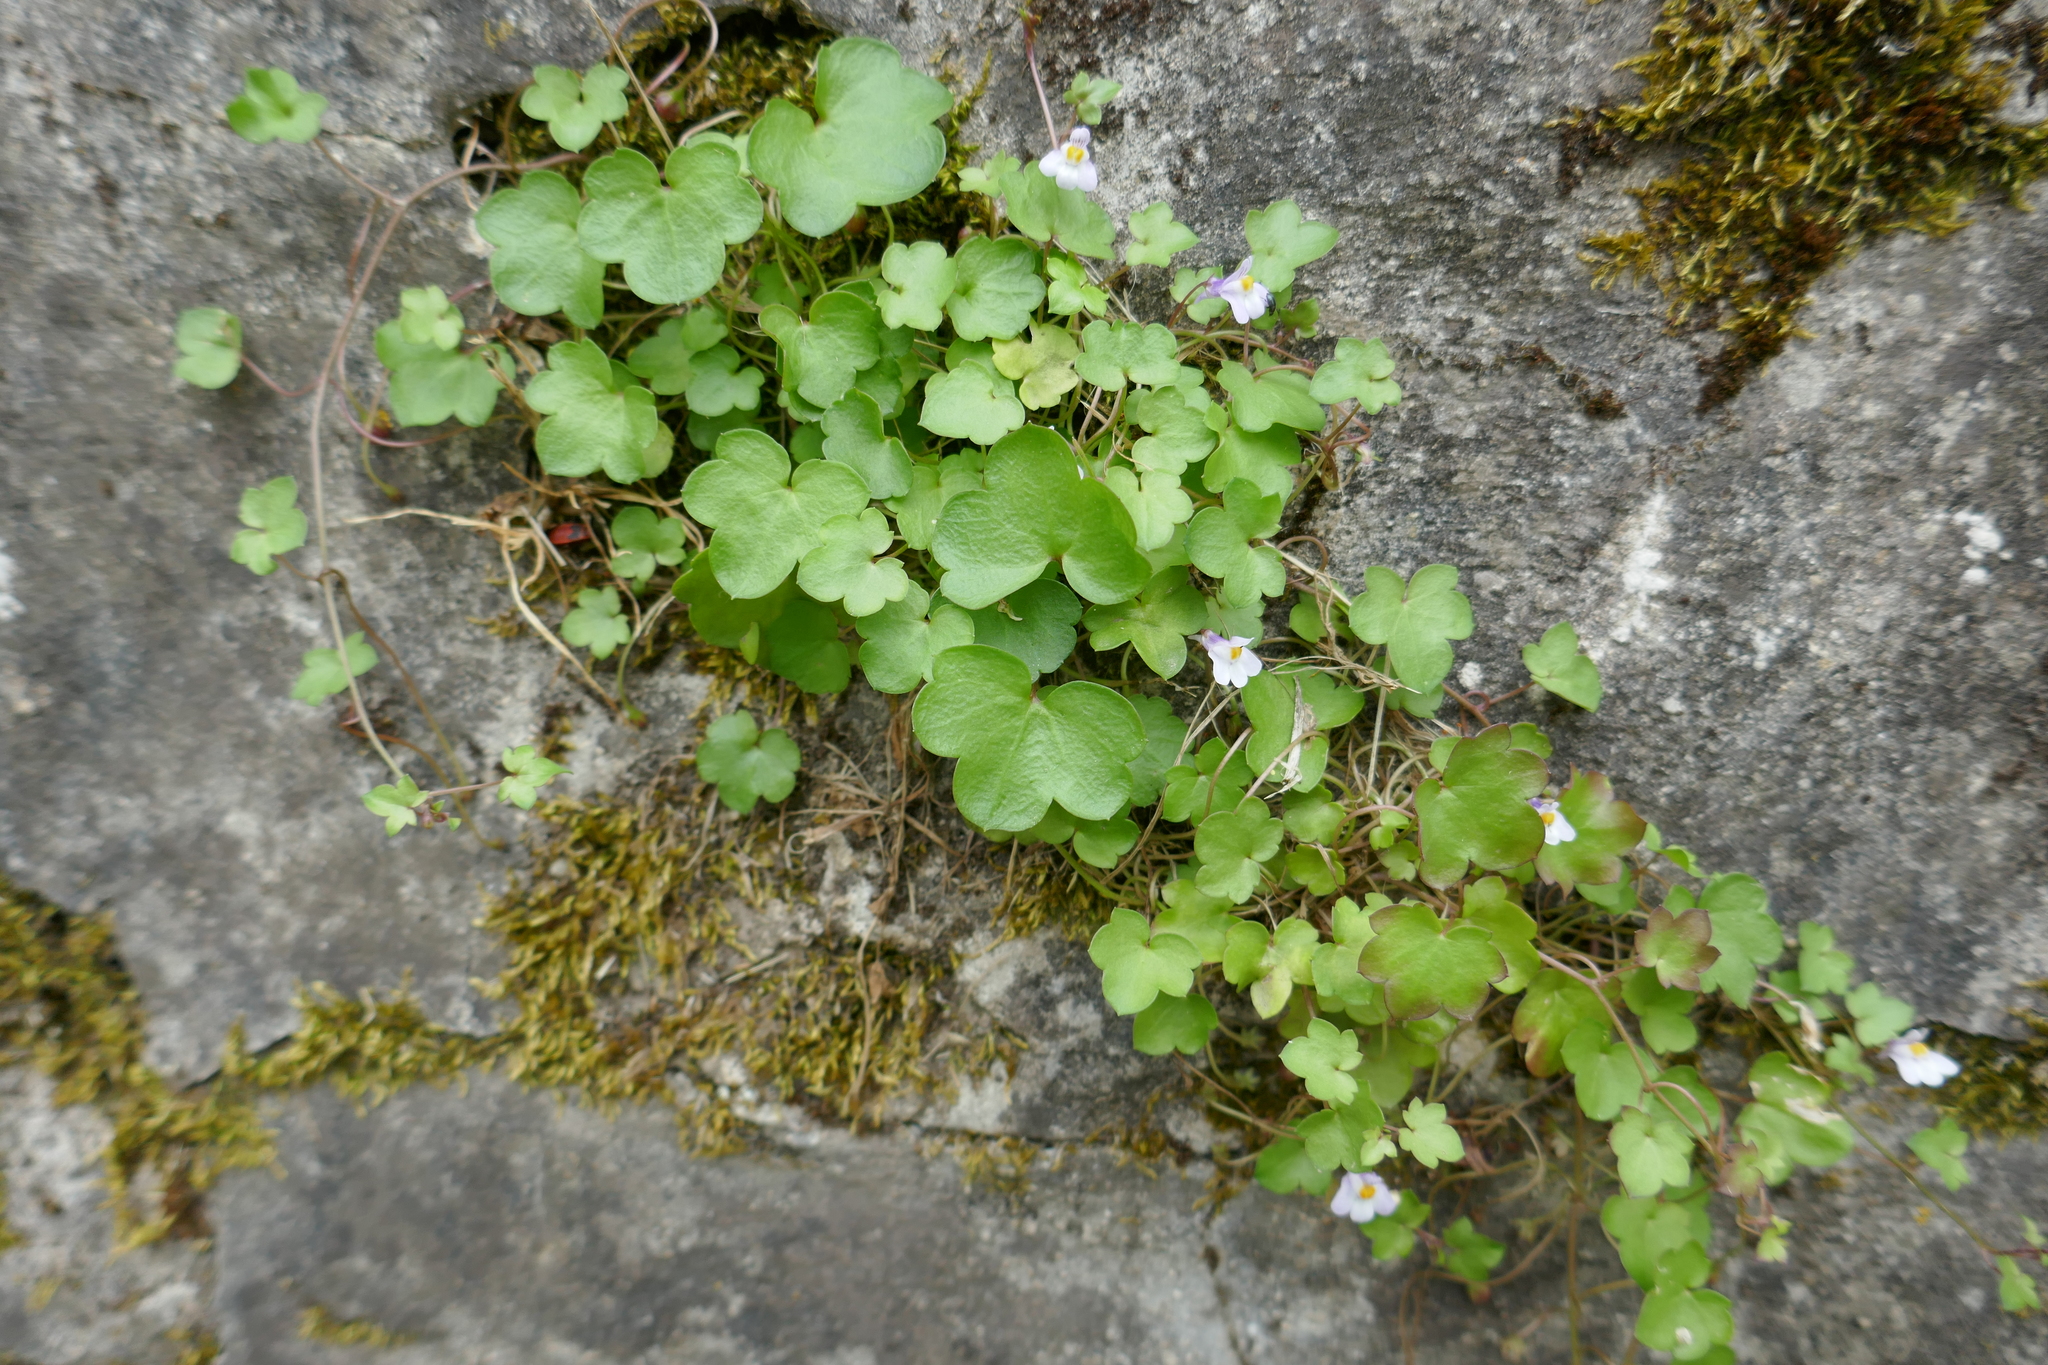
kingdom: Plantae
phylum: Tracheophyta
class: Magnoliopsida
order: Lamiales
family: Plantaginaceae
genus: Cymbalaria
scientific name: Cymbalaria muralis
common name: Ivy-leaved toadflax
